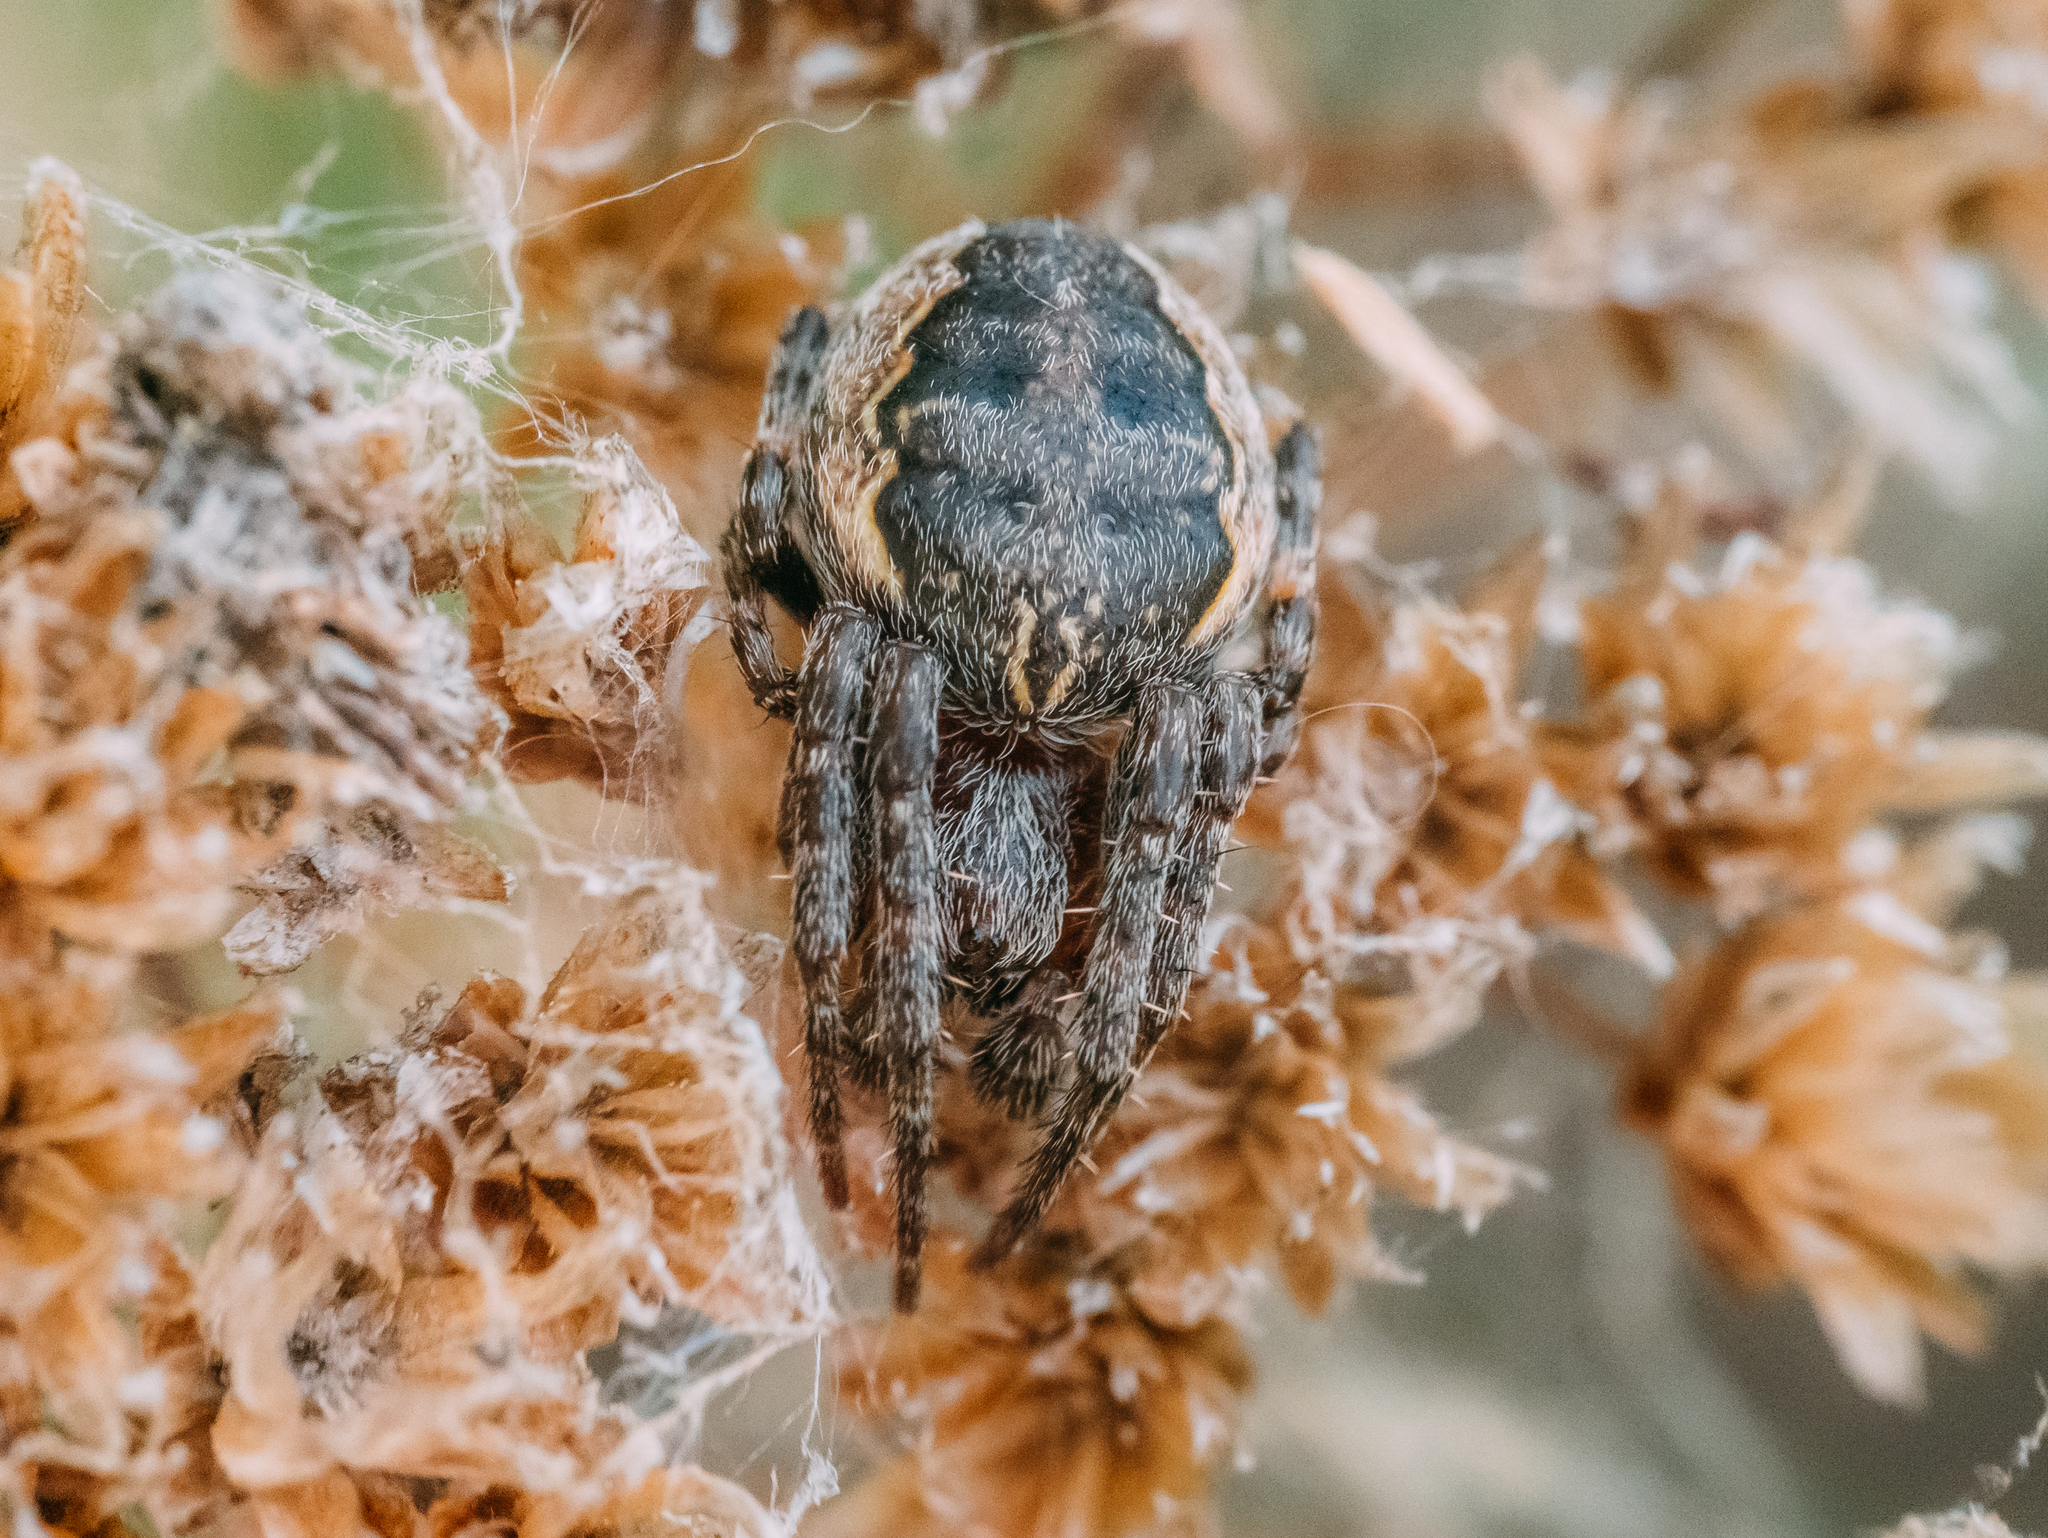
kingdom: Animalia
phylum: Arthropoda
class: Arachnida
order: Araneae
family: Araneidae
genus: Larinioides
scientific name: Larinioides patagiatus
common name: Ornamental orbweaver
